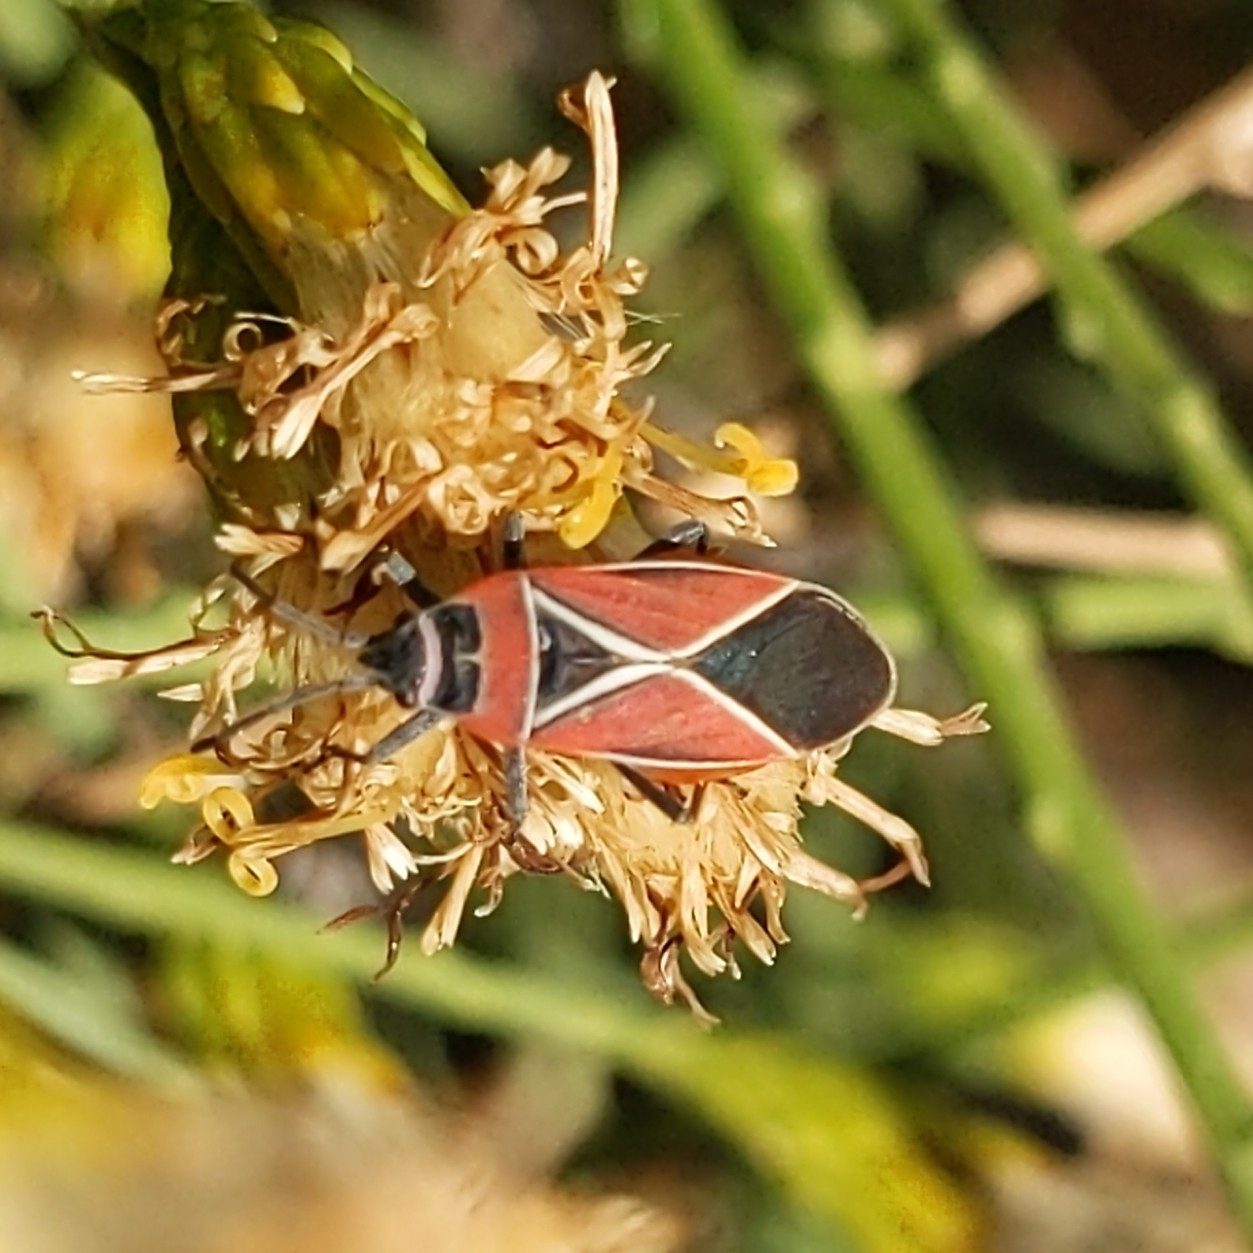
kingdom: Animalia
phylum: Arthropoda
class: Insecta
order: Hemiptera
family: Lygaeidae
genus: Neacoryphus
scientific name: Neacoryphus bicrucis
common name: Lygaeid bug
